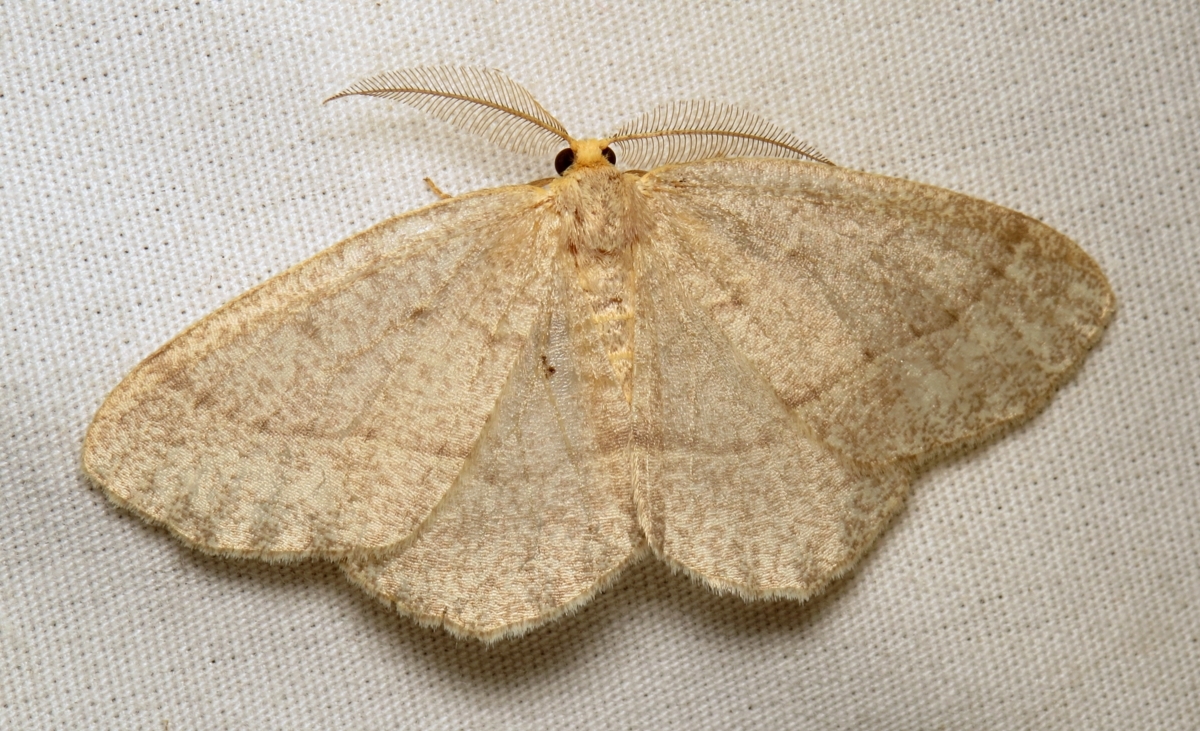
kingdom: Animalia
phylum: Arthropoda
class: Insecta
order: Lepidoptera
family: Geometridae
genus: Lambdina
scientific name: Lambdina fervidaria
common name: Curve-lined looper moth
